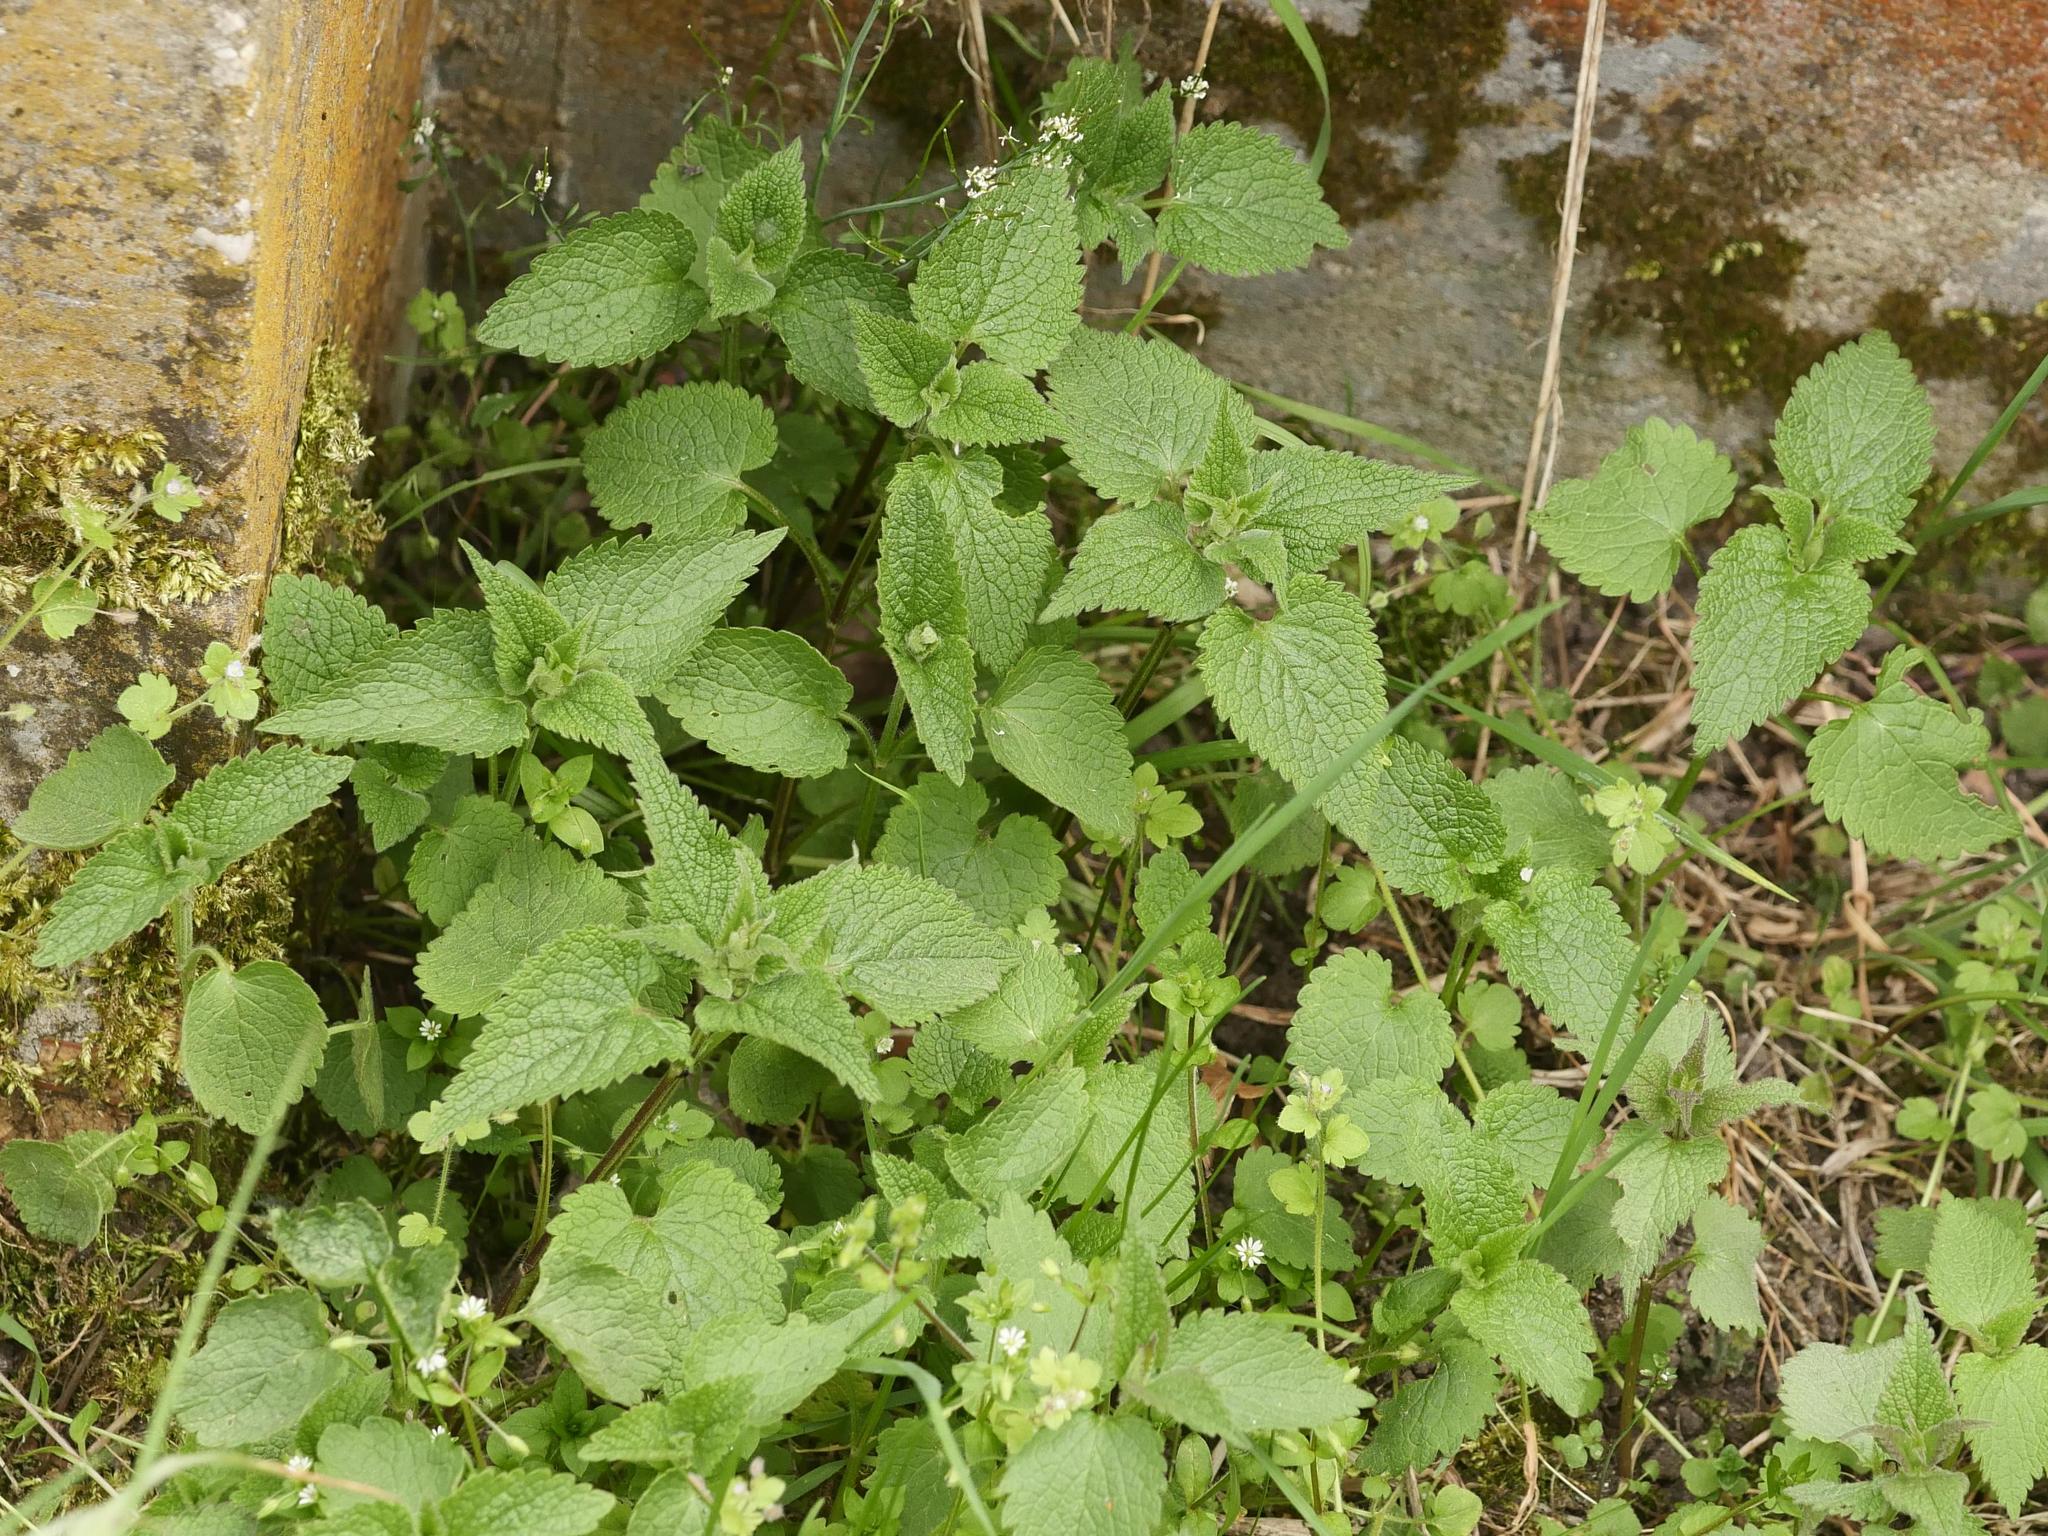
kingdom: Plantae
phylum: Tracheophyta
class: Magnoliopsida
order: Lamiales
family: Lamiaceae
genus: Lamium
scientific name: Lamium album
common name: White dead-nettle
